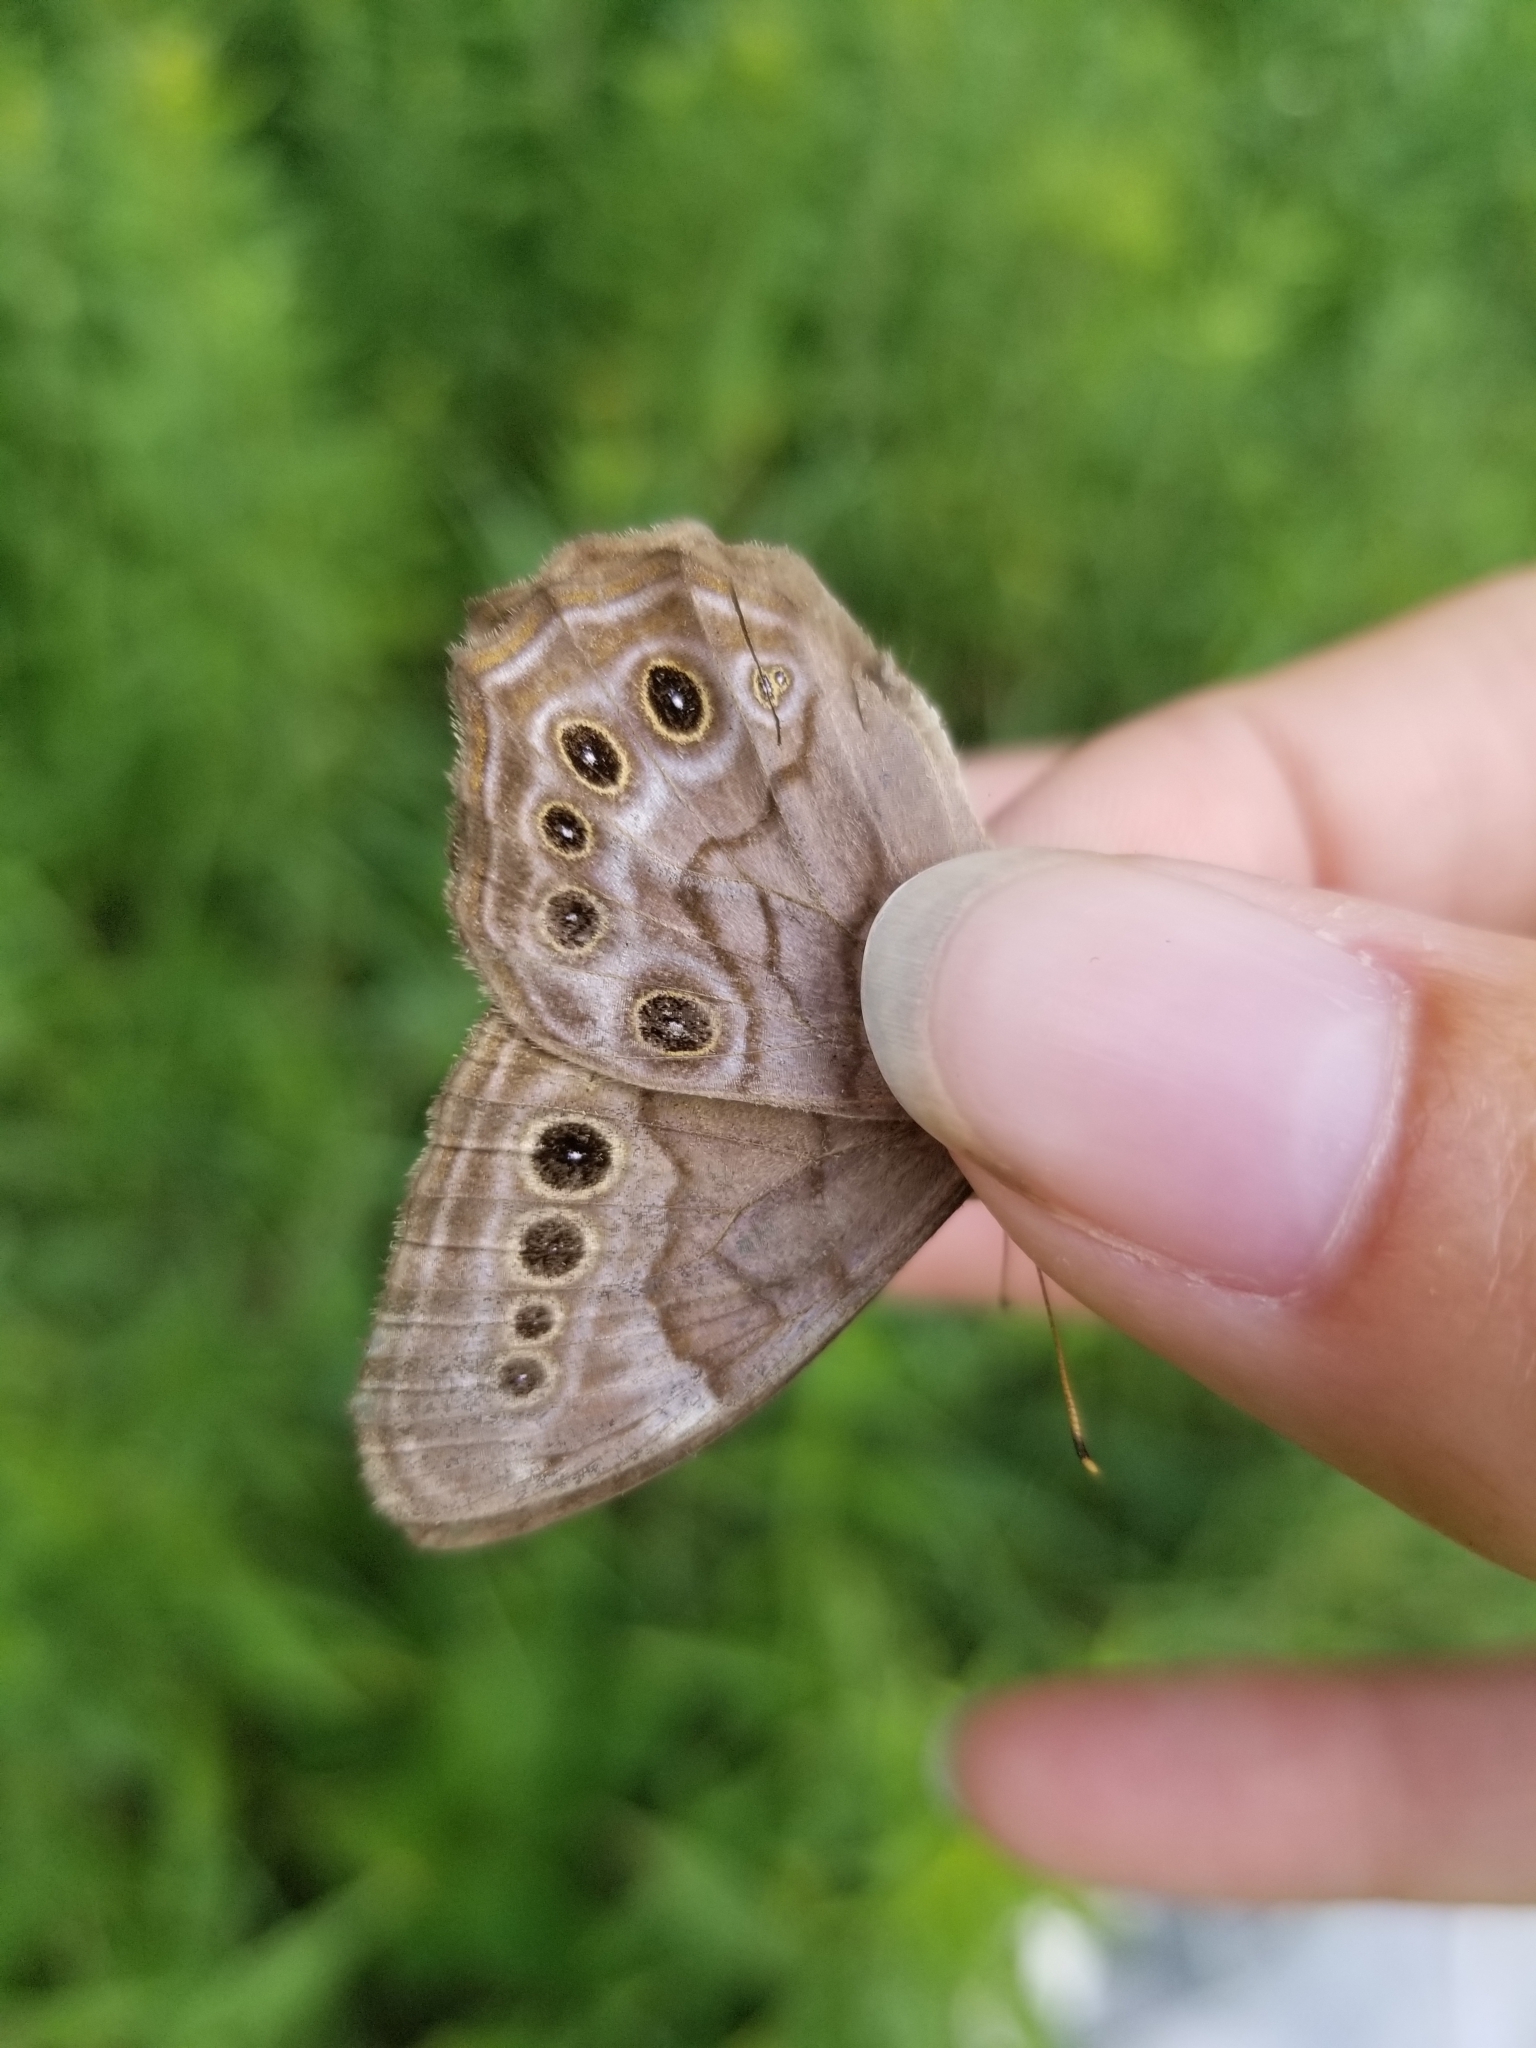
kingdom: Animalia
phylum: Arthropoda
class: Insecta
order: Lepidoptera
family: Nymphalidae
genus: Lethe
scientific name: Lethe anthedon
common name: Northern pearly-eye
